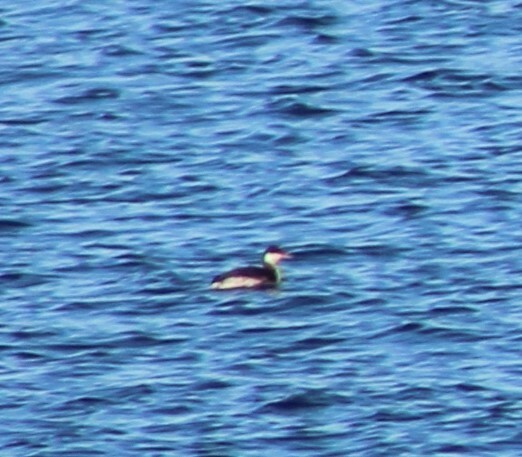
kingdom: Animalia
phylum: Chordata
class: Aves
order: Podicipediformes
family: Podicipedidae
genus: Podiceps
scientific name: Podiceps auritus
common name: Horned grebe
